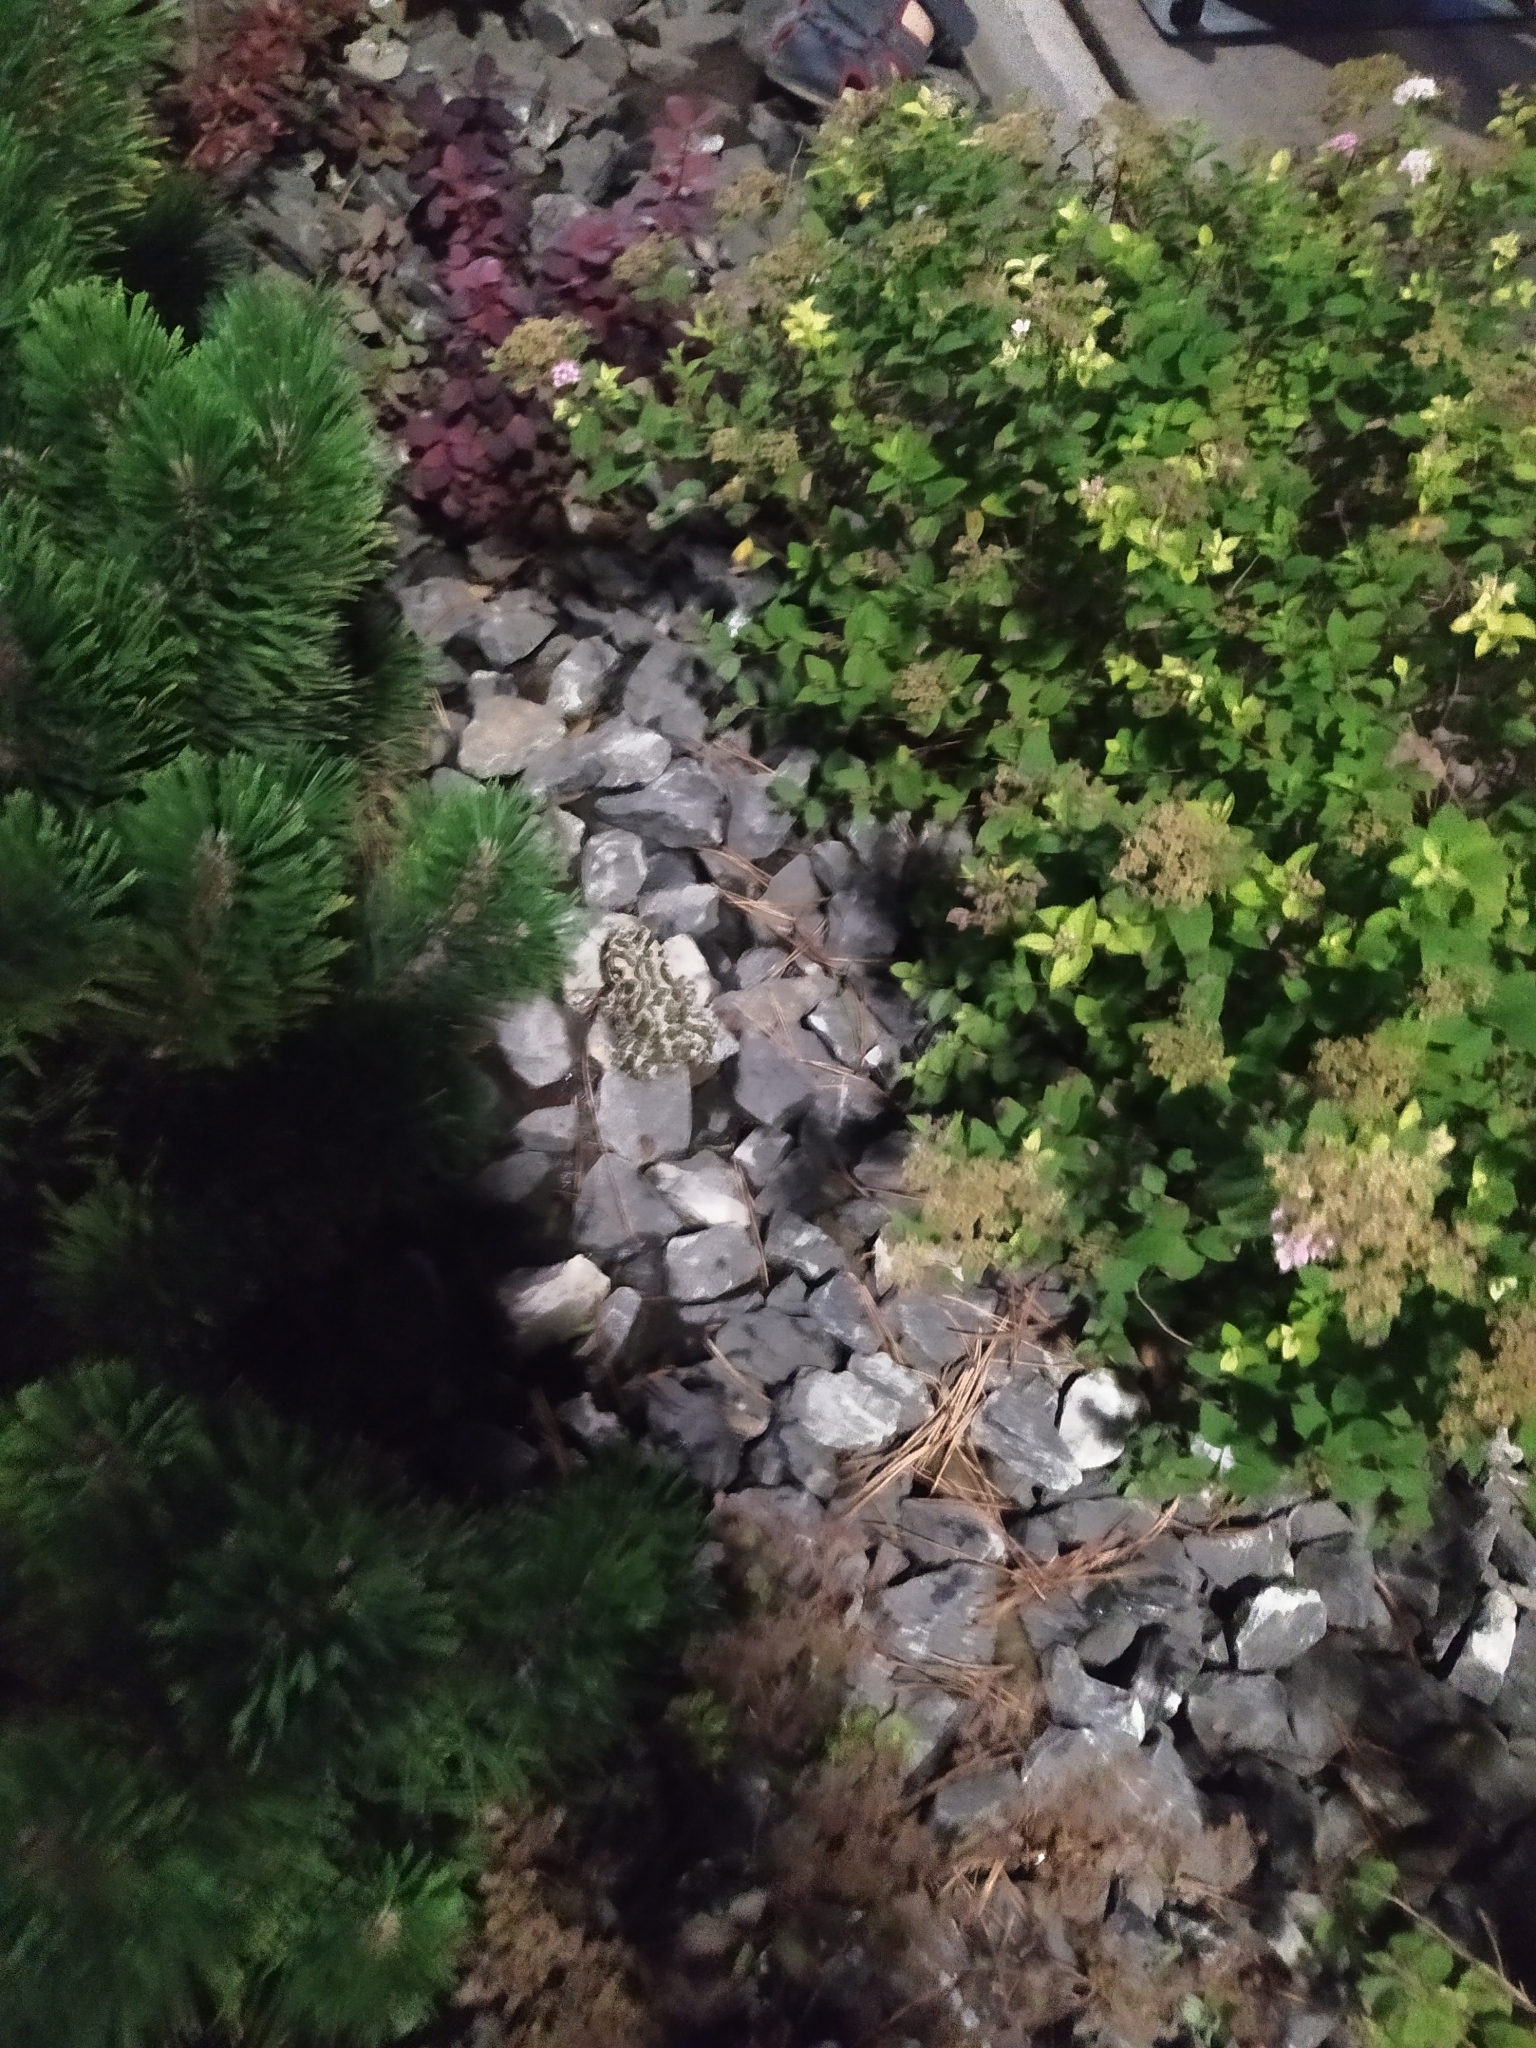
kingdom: Animalia
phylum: Chordata
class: Amphibia
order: Anura
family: Bufonidae
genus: Bufotes
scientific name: Bufotes viridis
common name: European green toad
